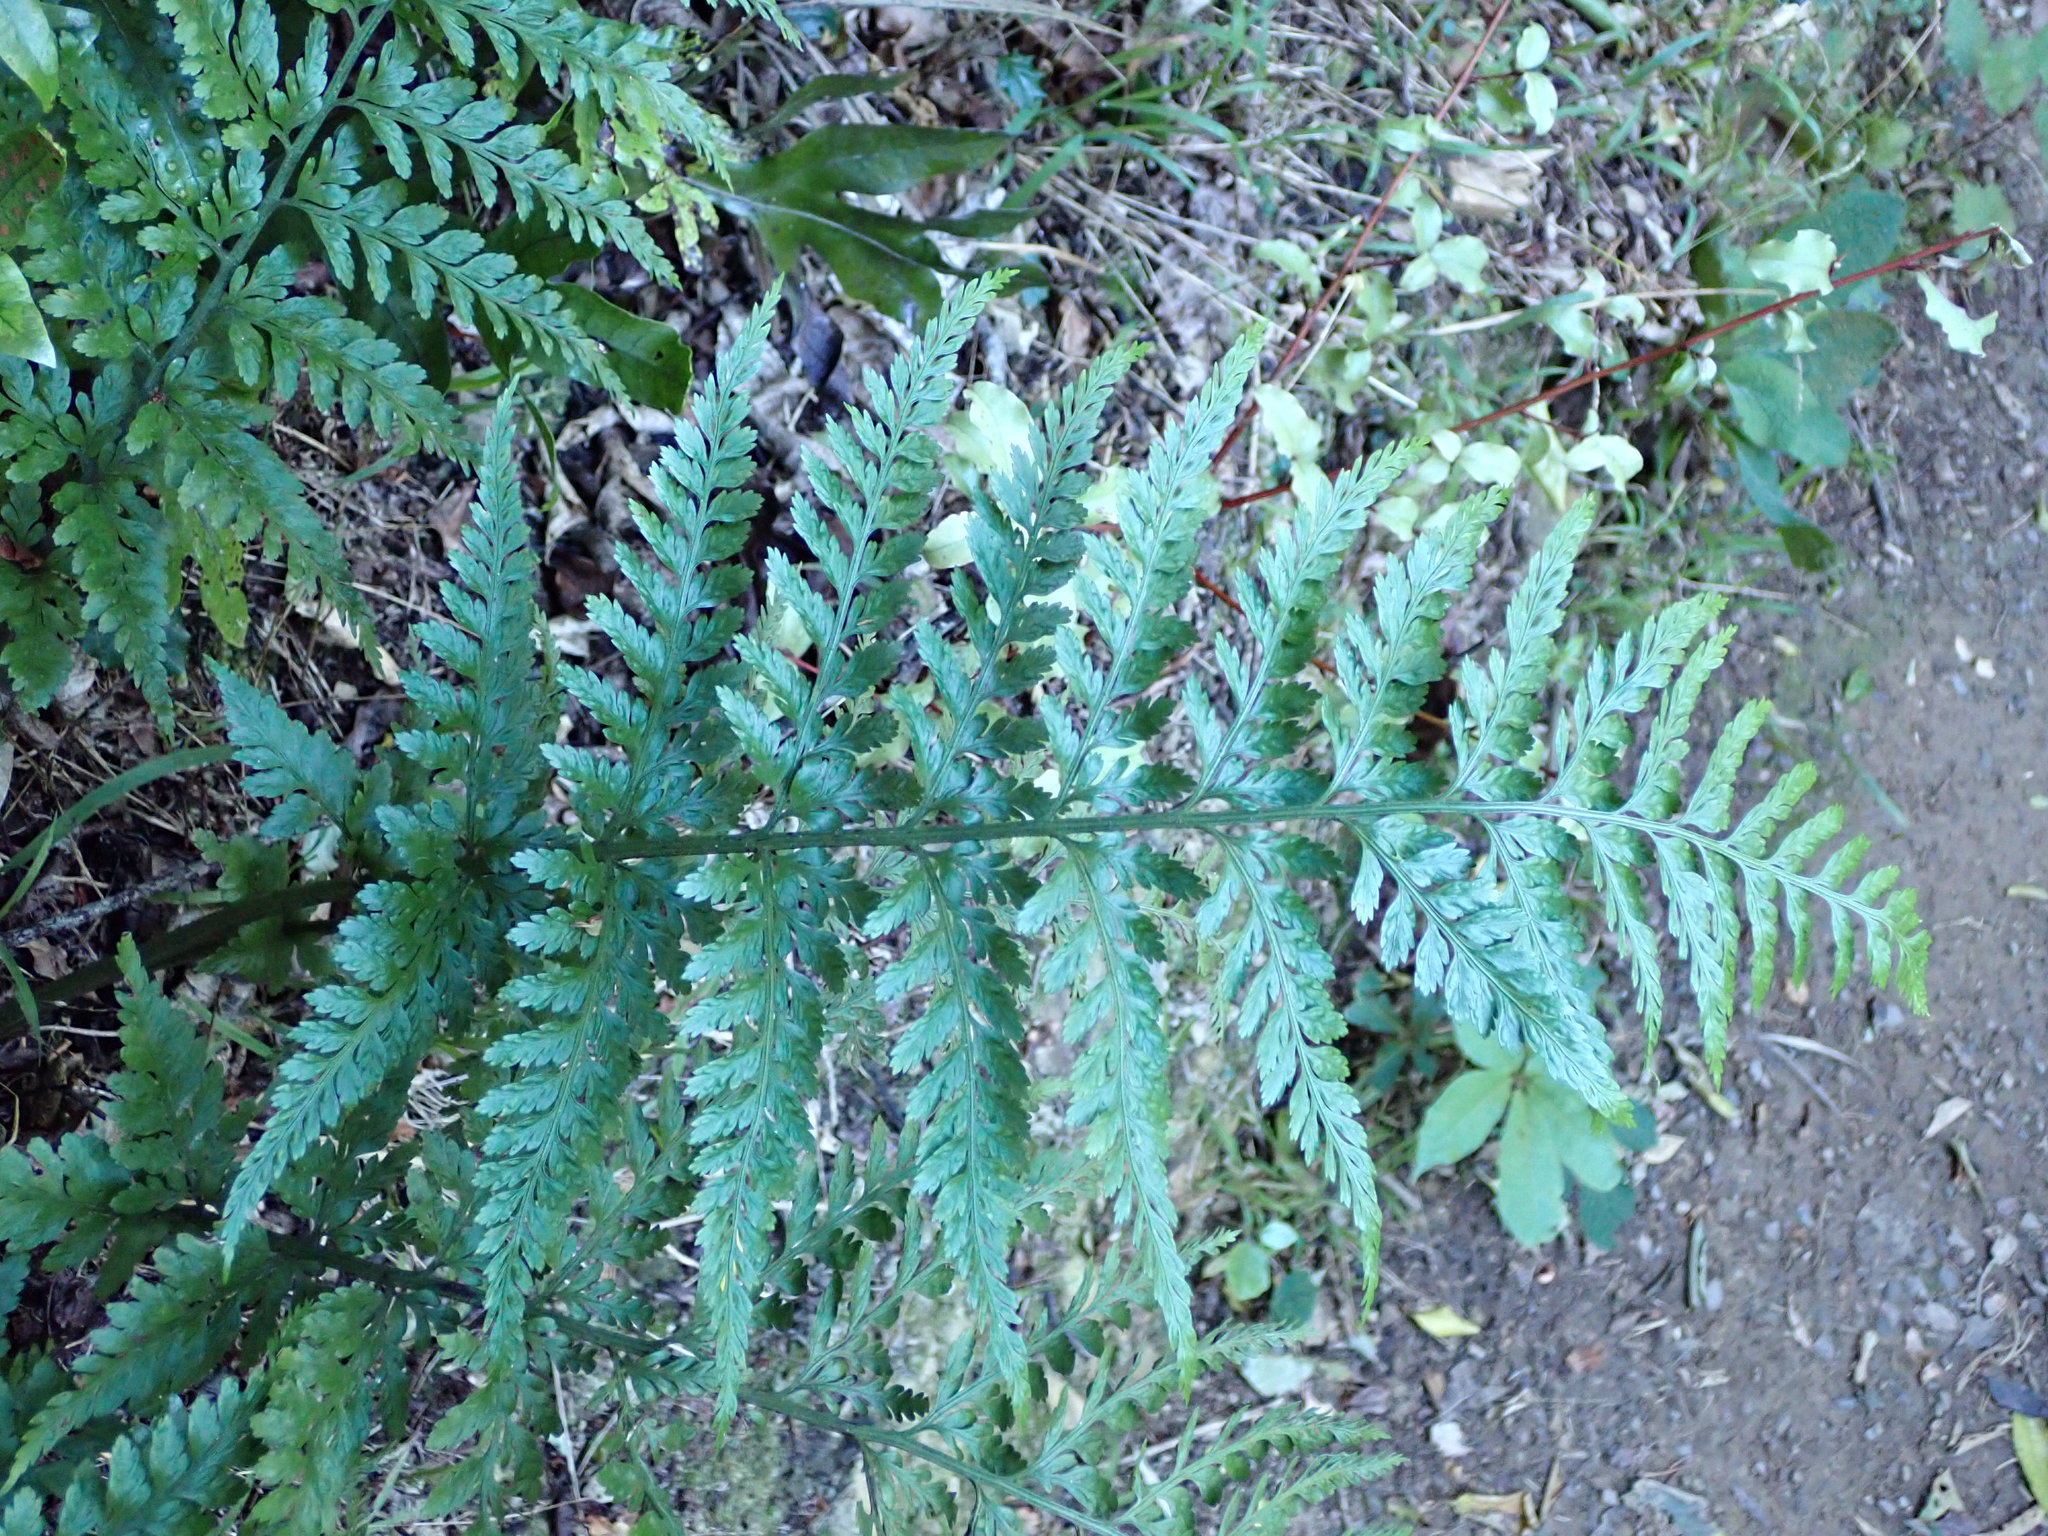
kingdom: Plantae
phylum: Tracheophyta
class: Polypodiopsida
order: Polypodiales
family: Aspleniaceae
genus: Asplenium
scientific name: Asplenium
